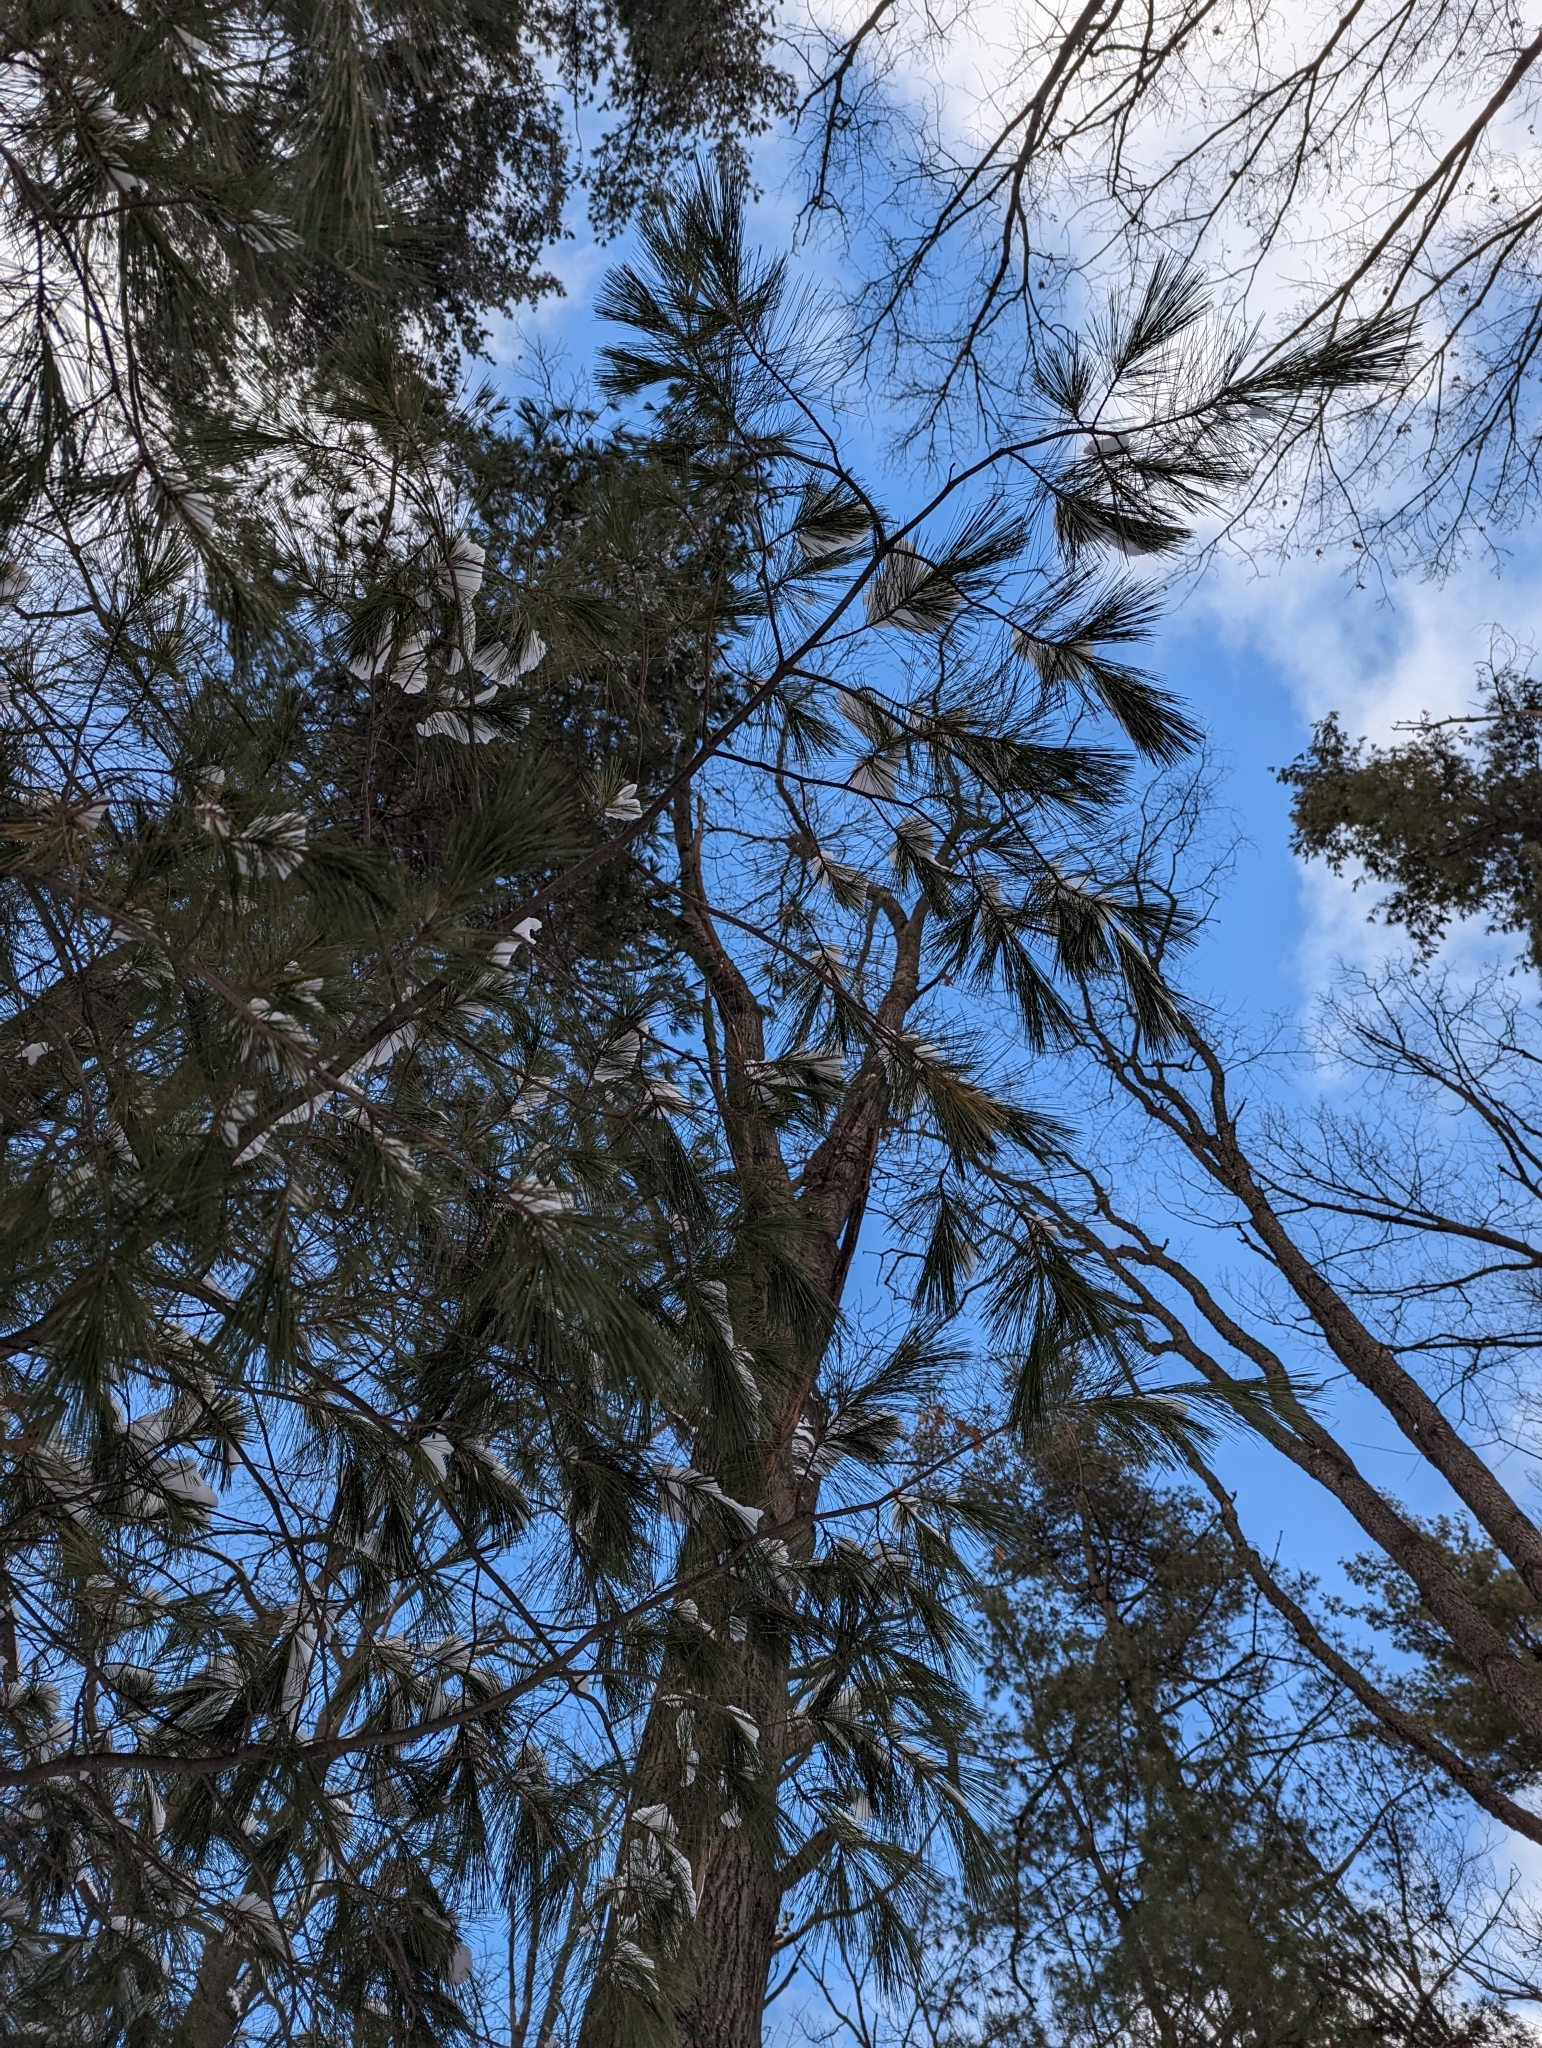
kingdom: Plantae
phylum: Tracheophyta
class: Pinopsida
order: Pinales
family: Pinaceae
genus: Pinus
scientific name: Pinus strobus
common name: Weymouth pine
